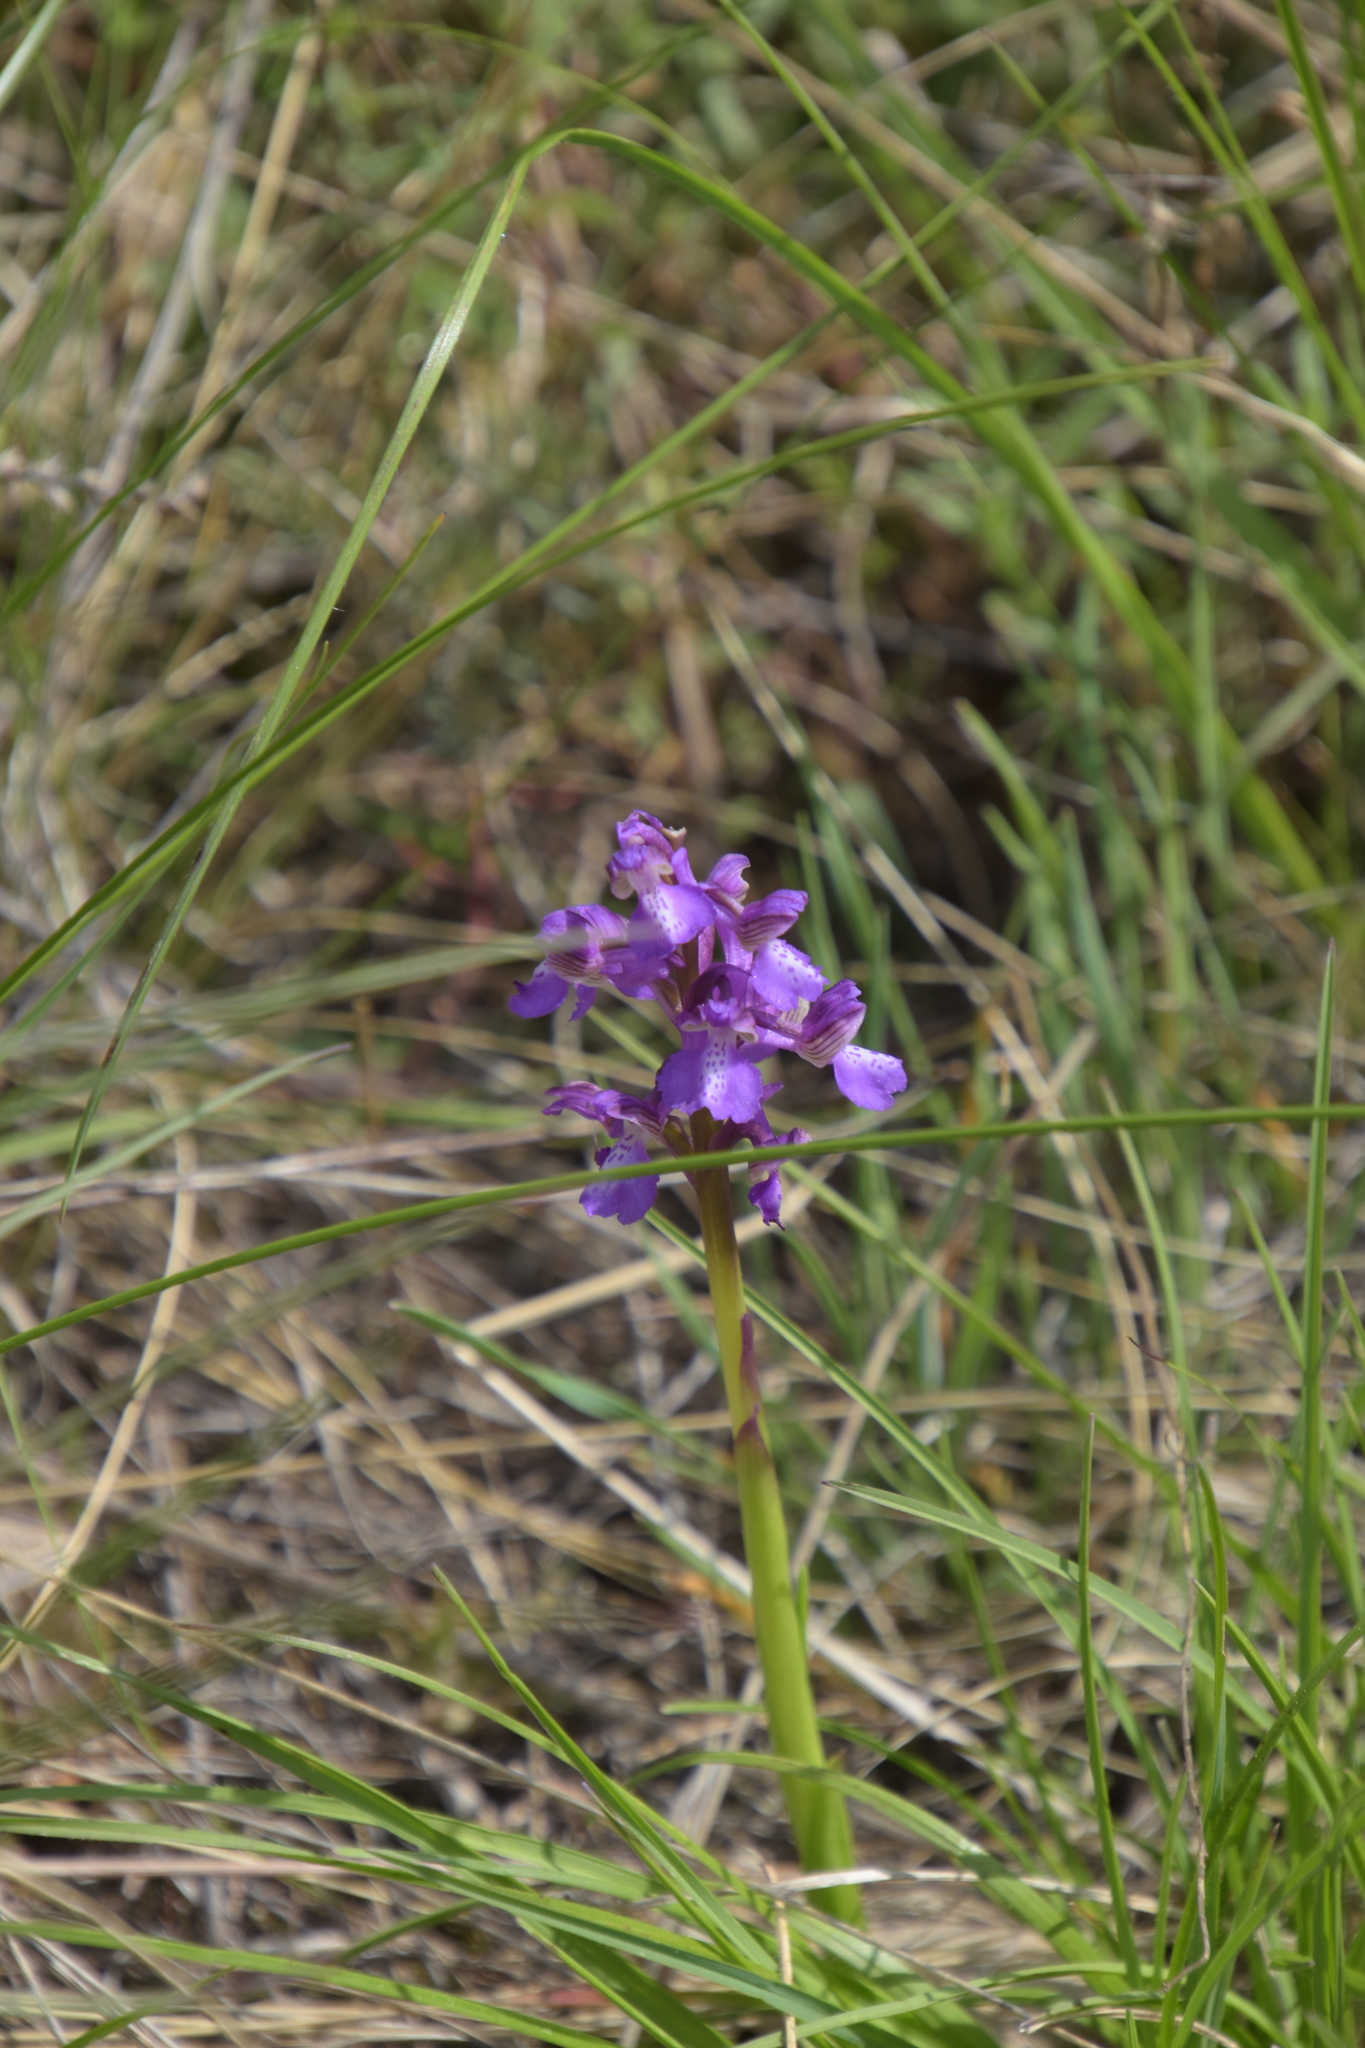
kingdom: Plantae
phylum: Tracheophyta
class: Liliopsida
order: Asparagales
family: Orchidaceae
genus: Anacamptis
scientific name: Anacamptis morio
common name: Green-winged orchid
